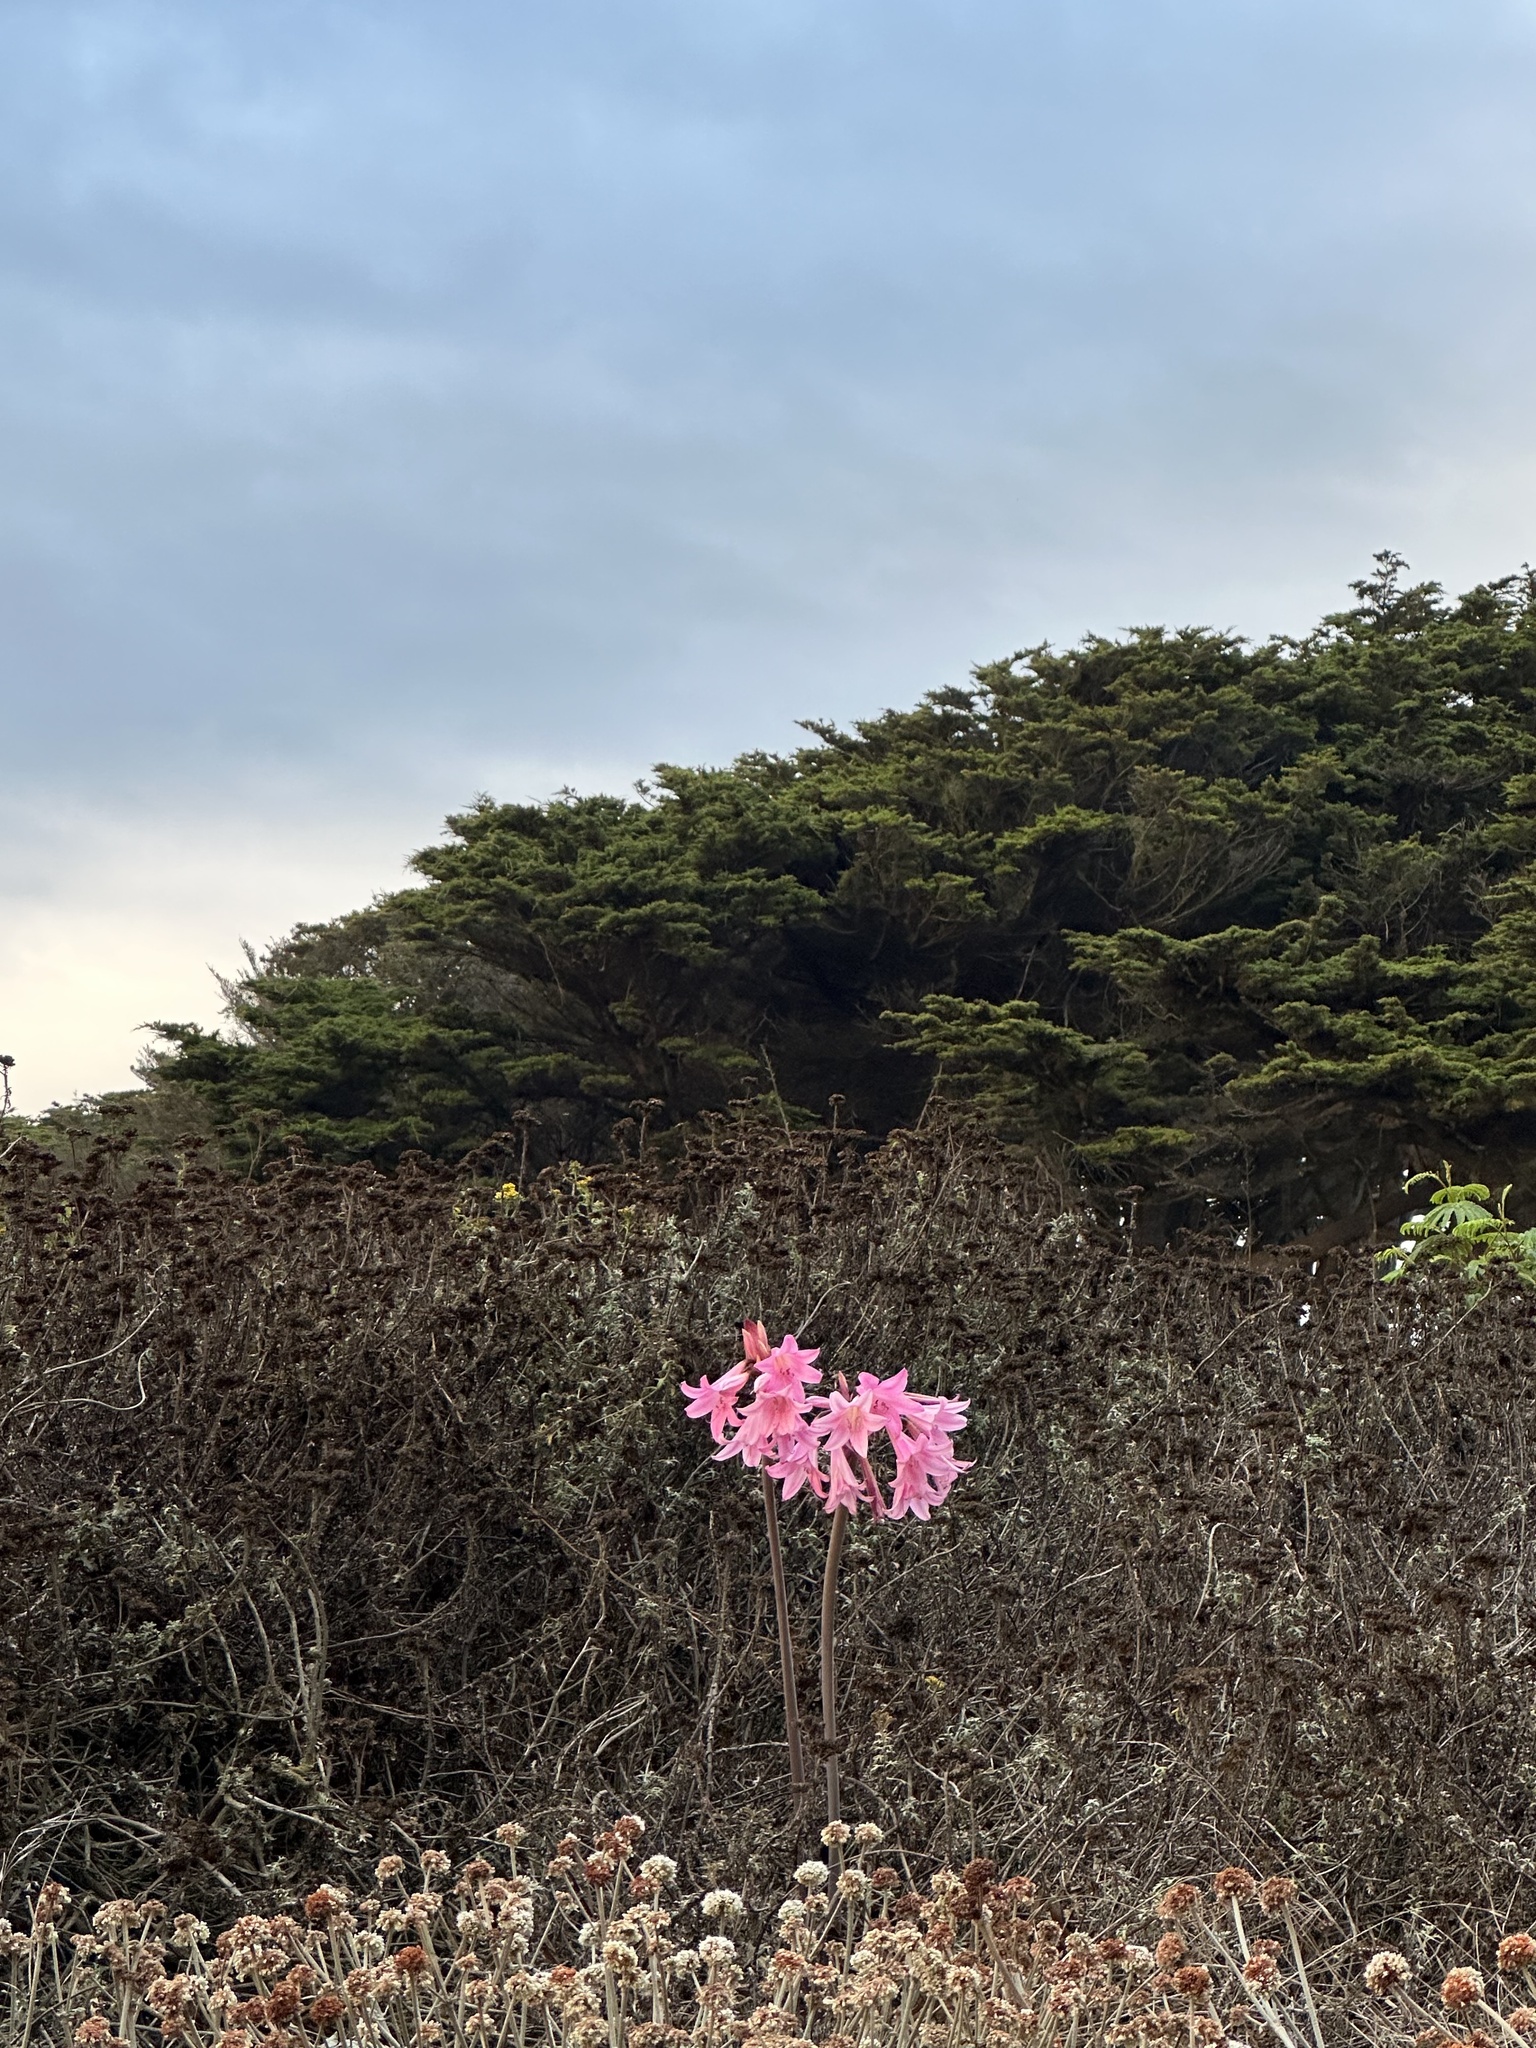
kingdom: Plantae
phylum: Tracheophyta
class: Liliopsida
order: Asparagales
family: Amaryllidaceae
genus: Amaryllis
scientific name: Amaryllis belladonna
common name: Jersey lily
